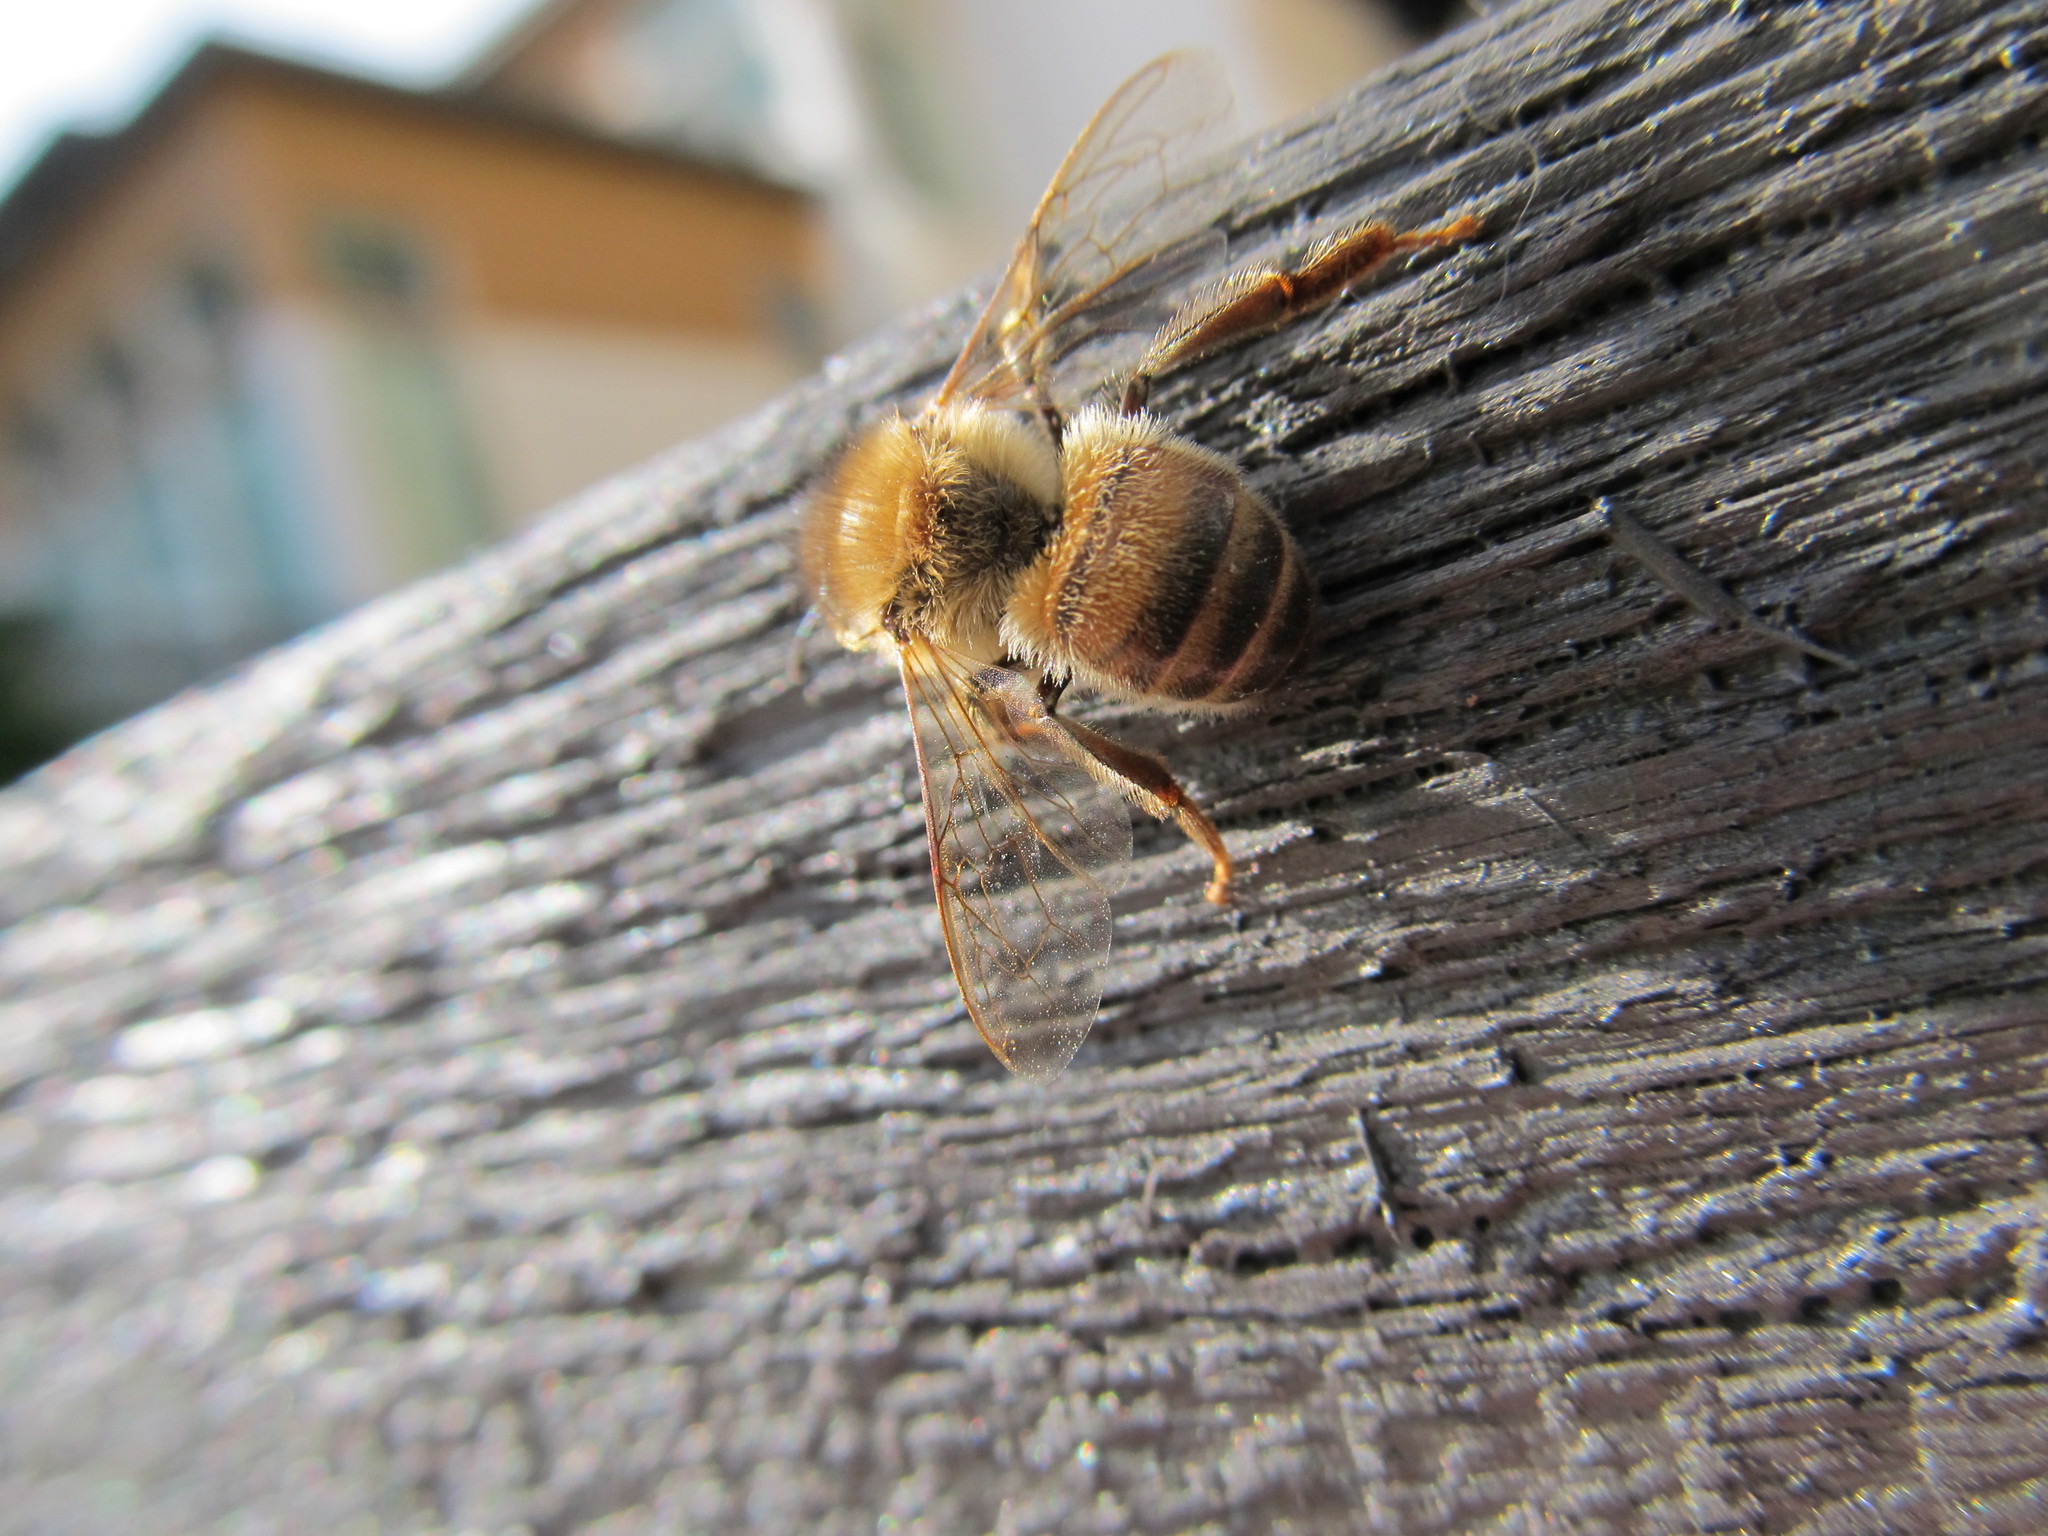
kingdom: Animalia
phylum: Arthropoda
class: Insecta
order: Hymenoptera
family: Apidae
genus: Apis
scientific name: Apis mellifera
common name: Honey bee
